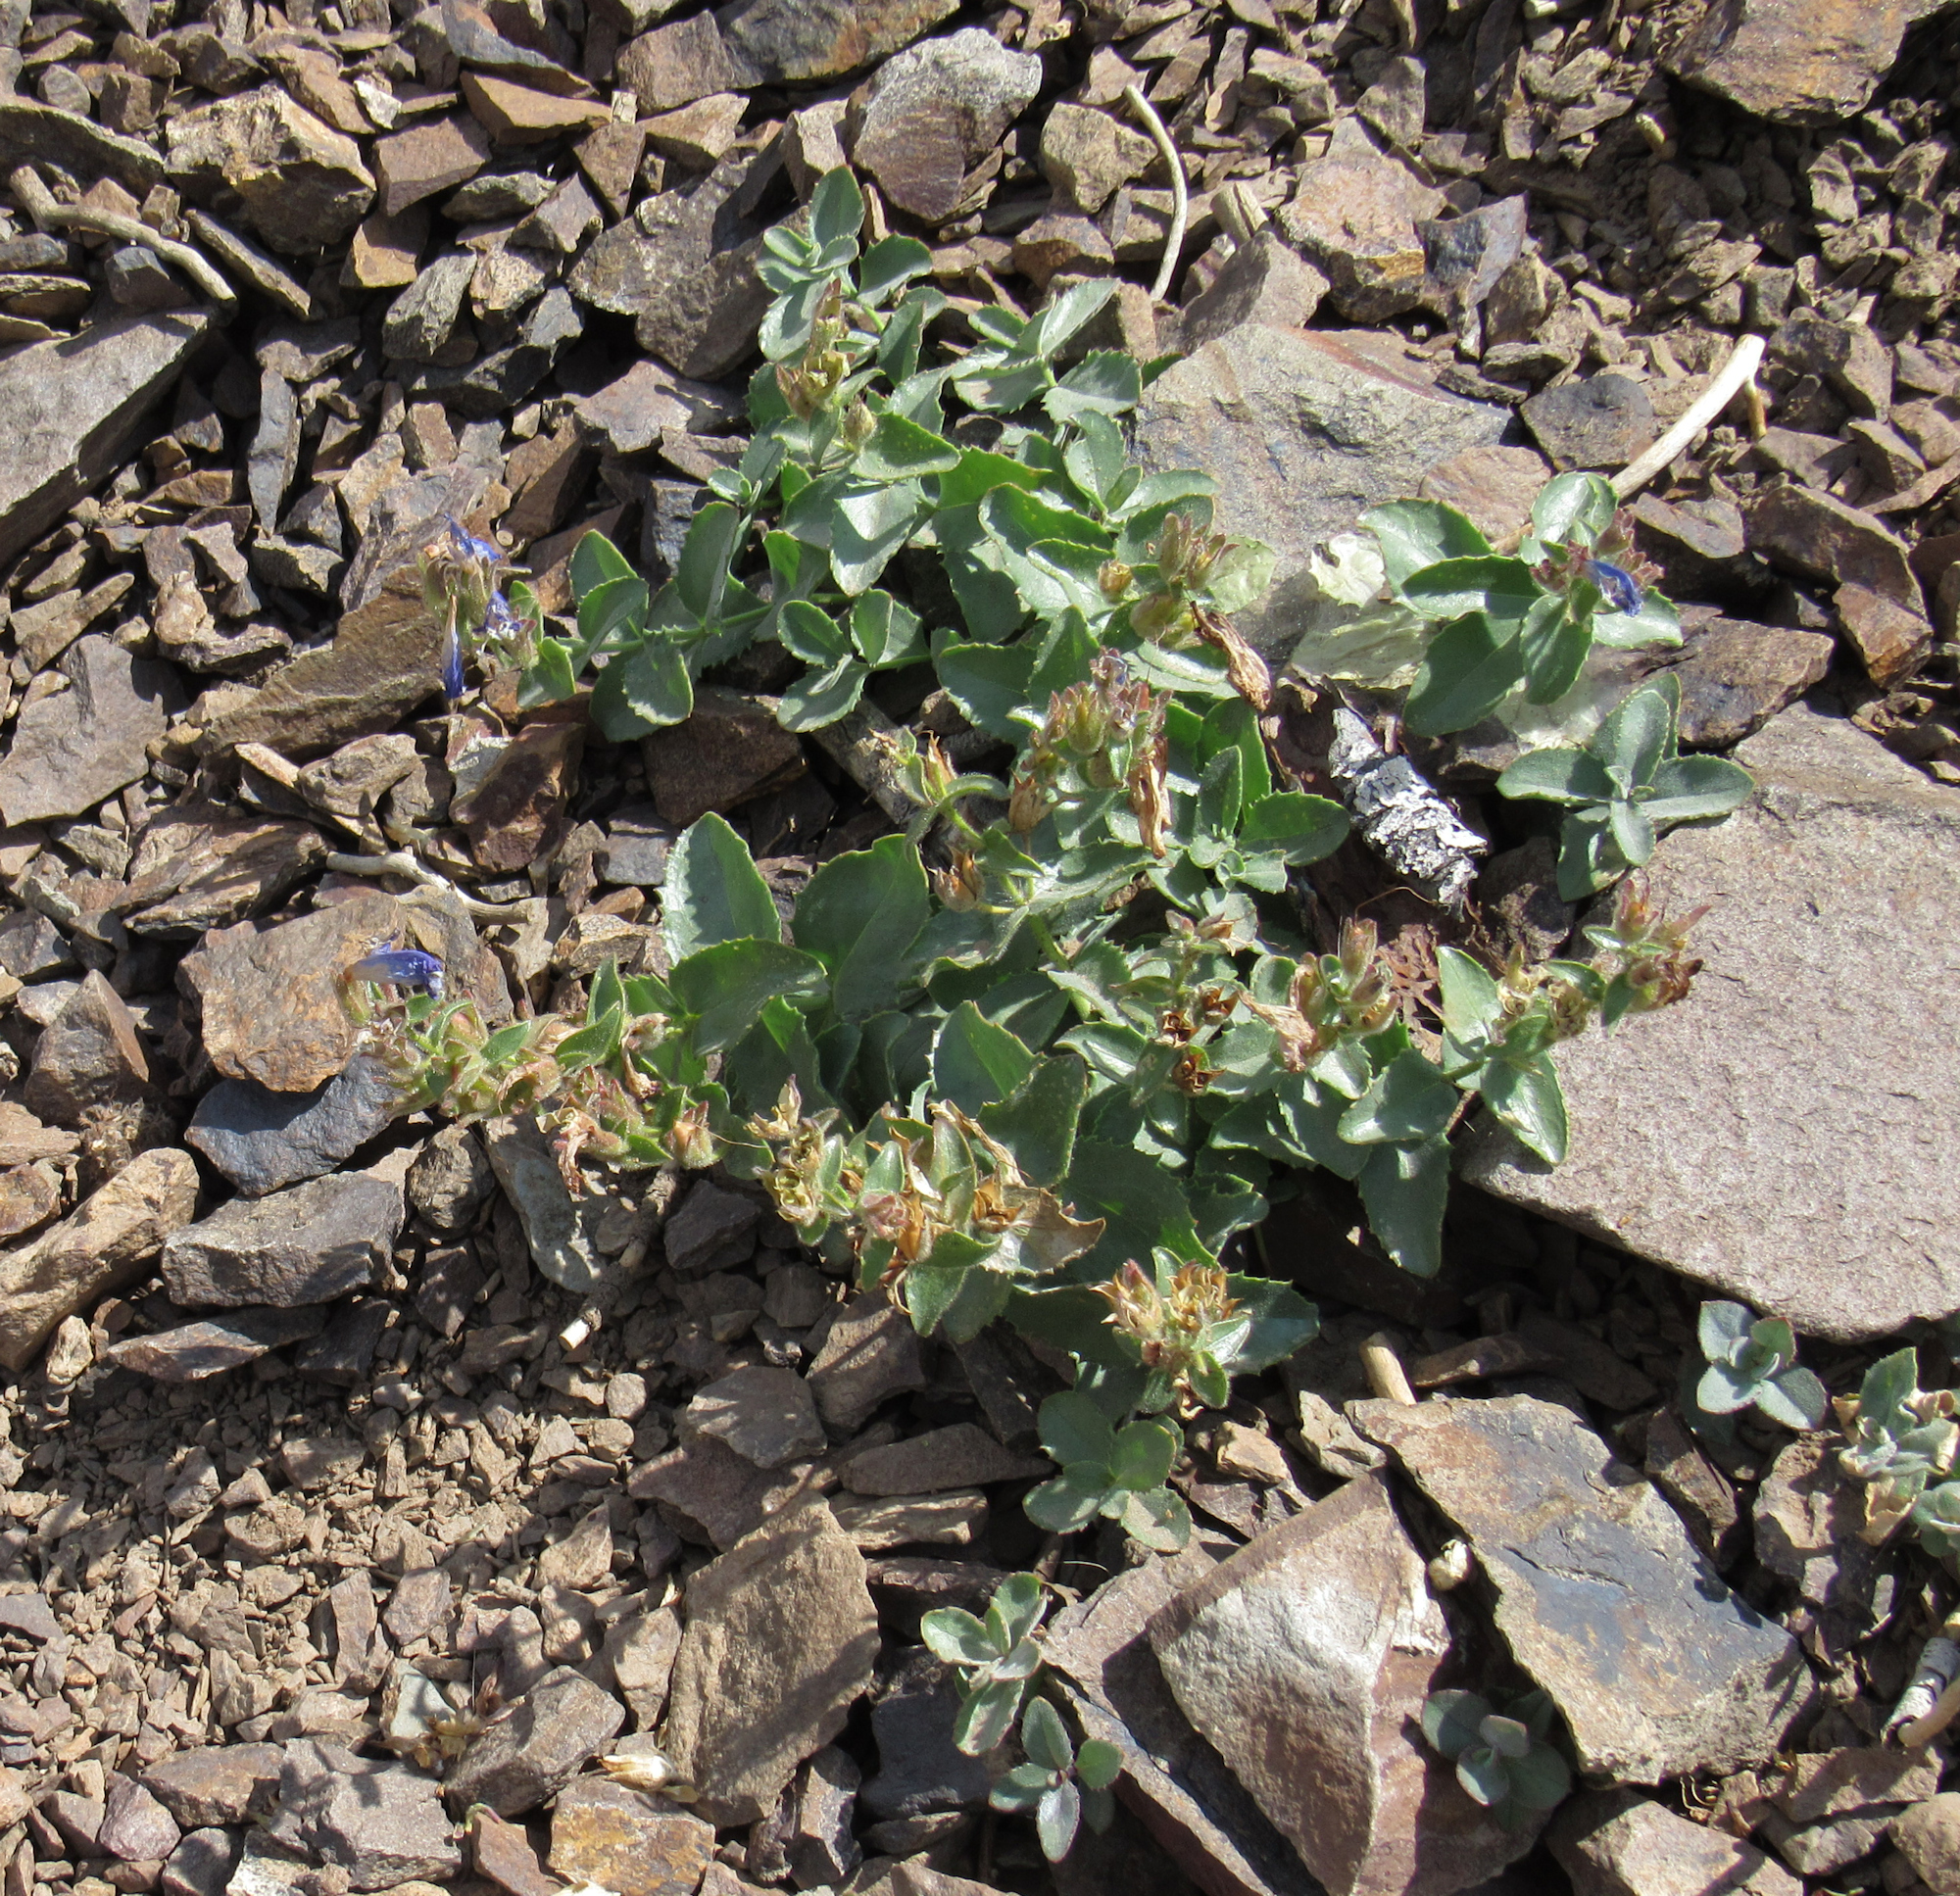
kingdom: Plantae
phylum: Tracheophyta
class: Magnoliopsida
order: Lamiales
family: Plantaginaceae
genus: Penstemon
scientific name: Penstemon montanus
